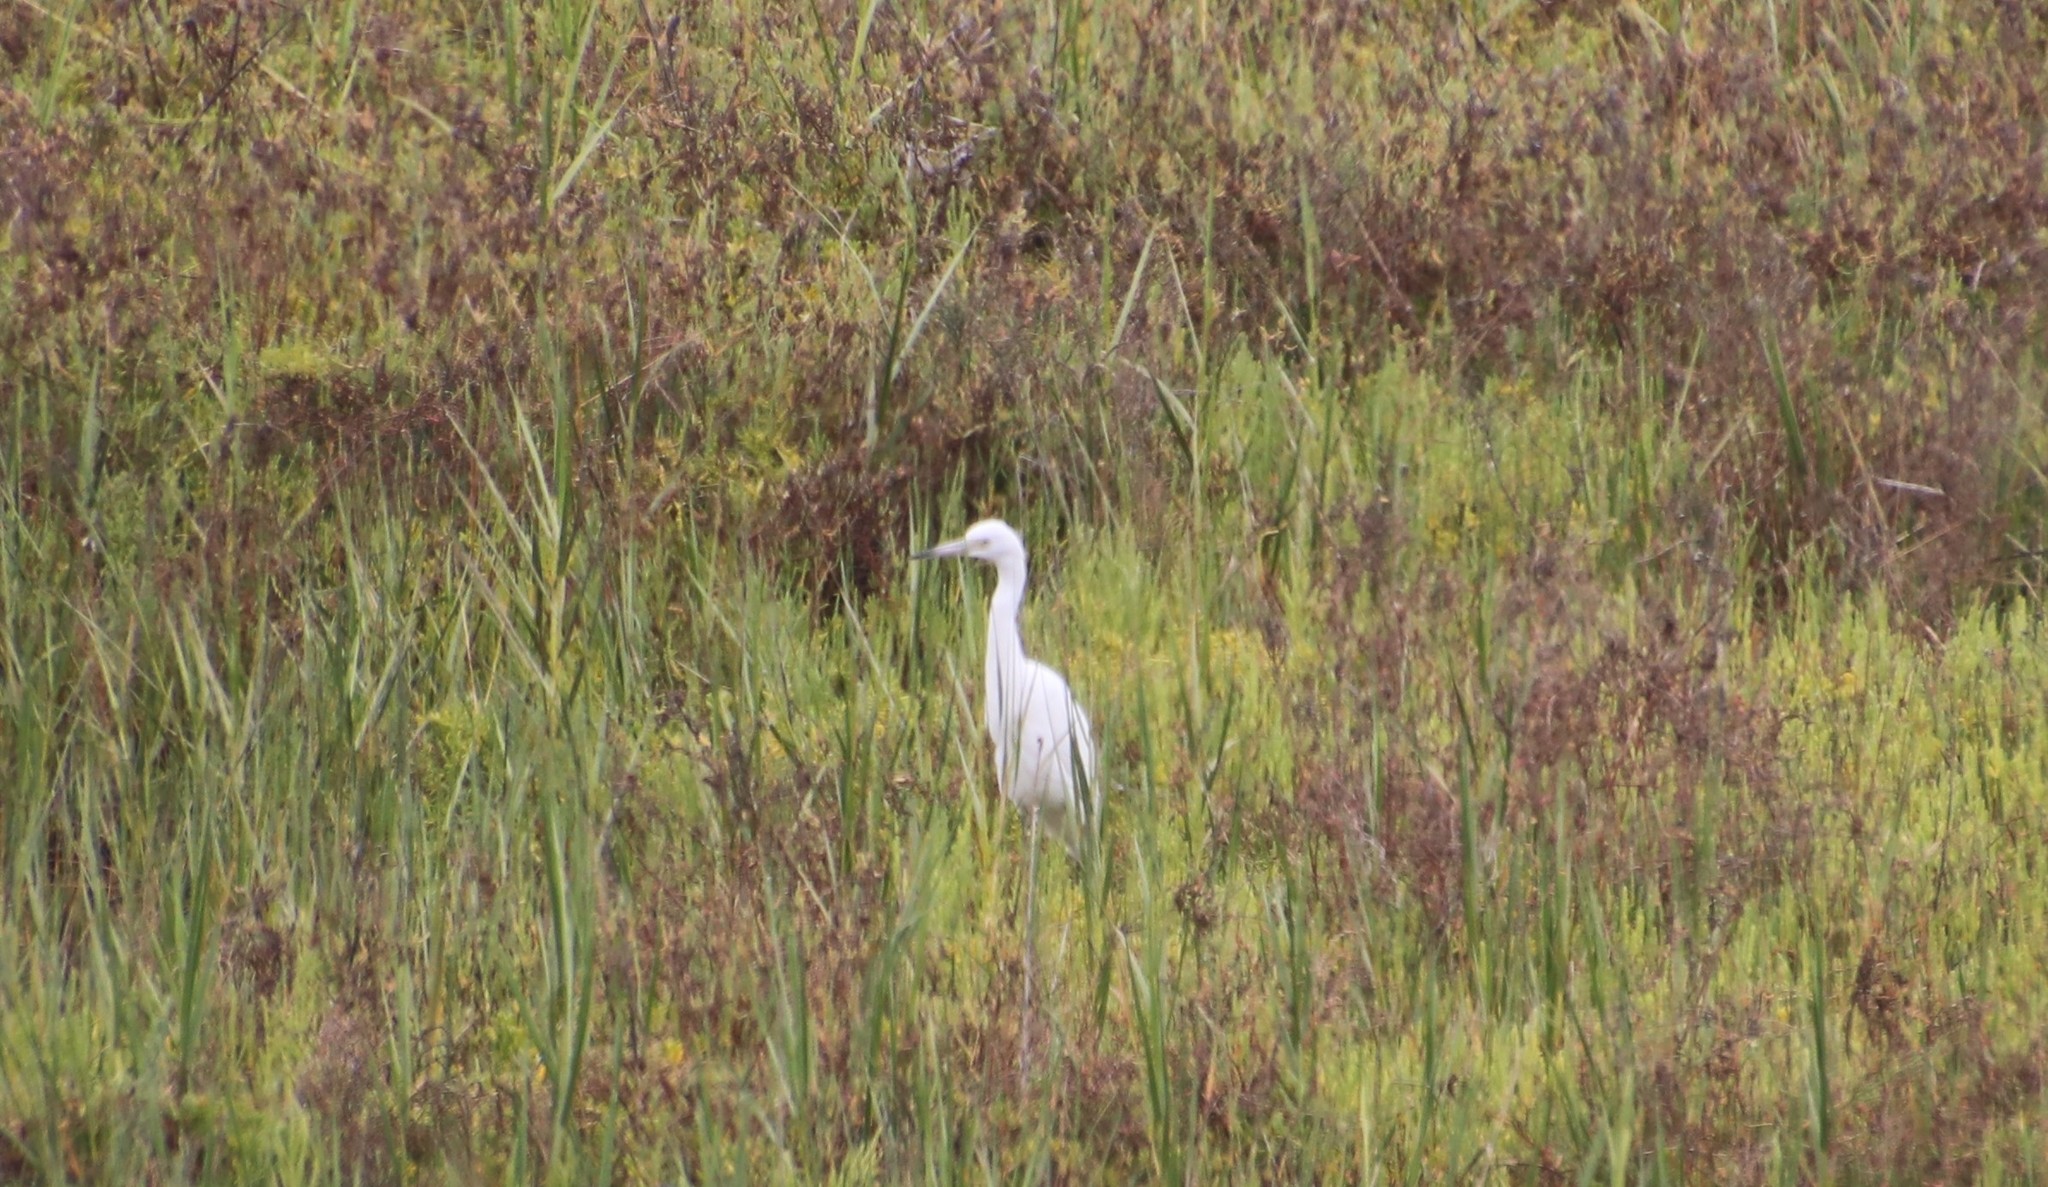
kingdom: Animalia
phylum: Chordata
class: Aves
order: Pelecaniformes
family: Ardeidae
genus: Egretta
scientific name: Egretta caerulea
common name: Little blue heron
